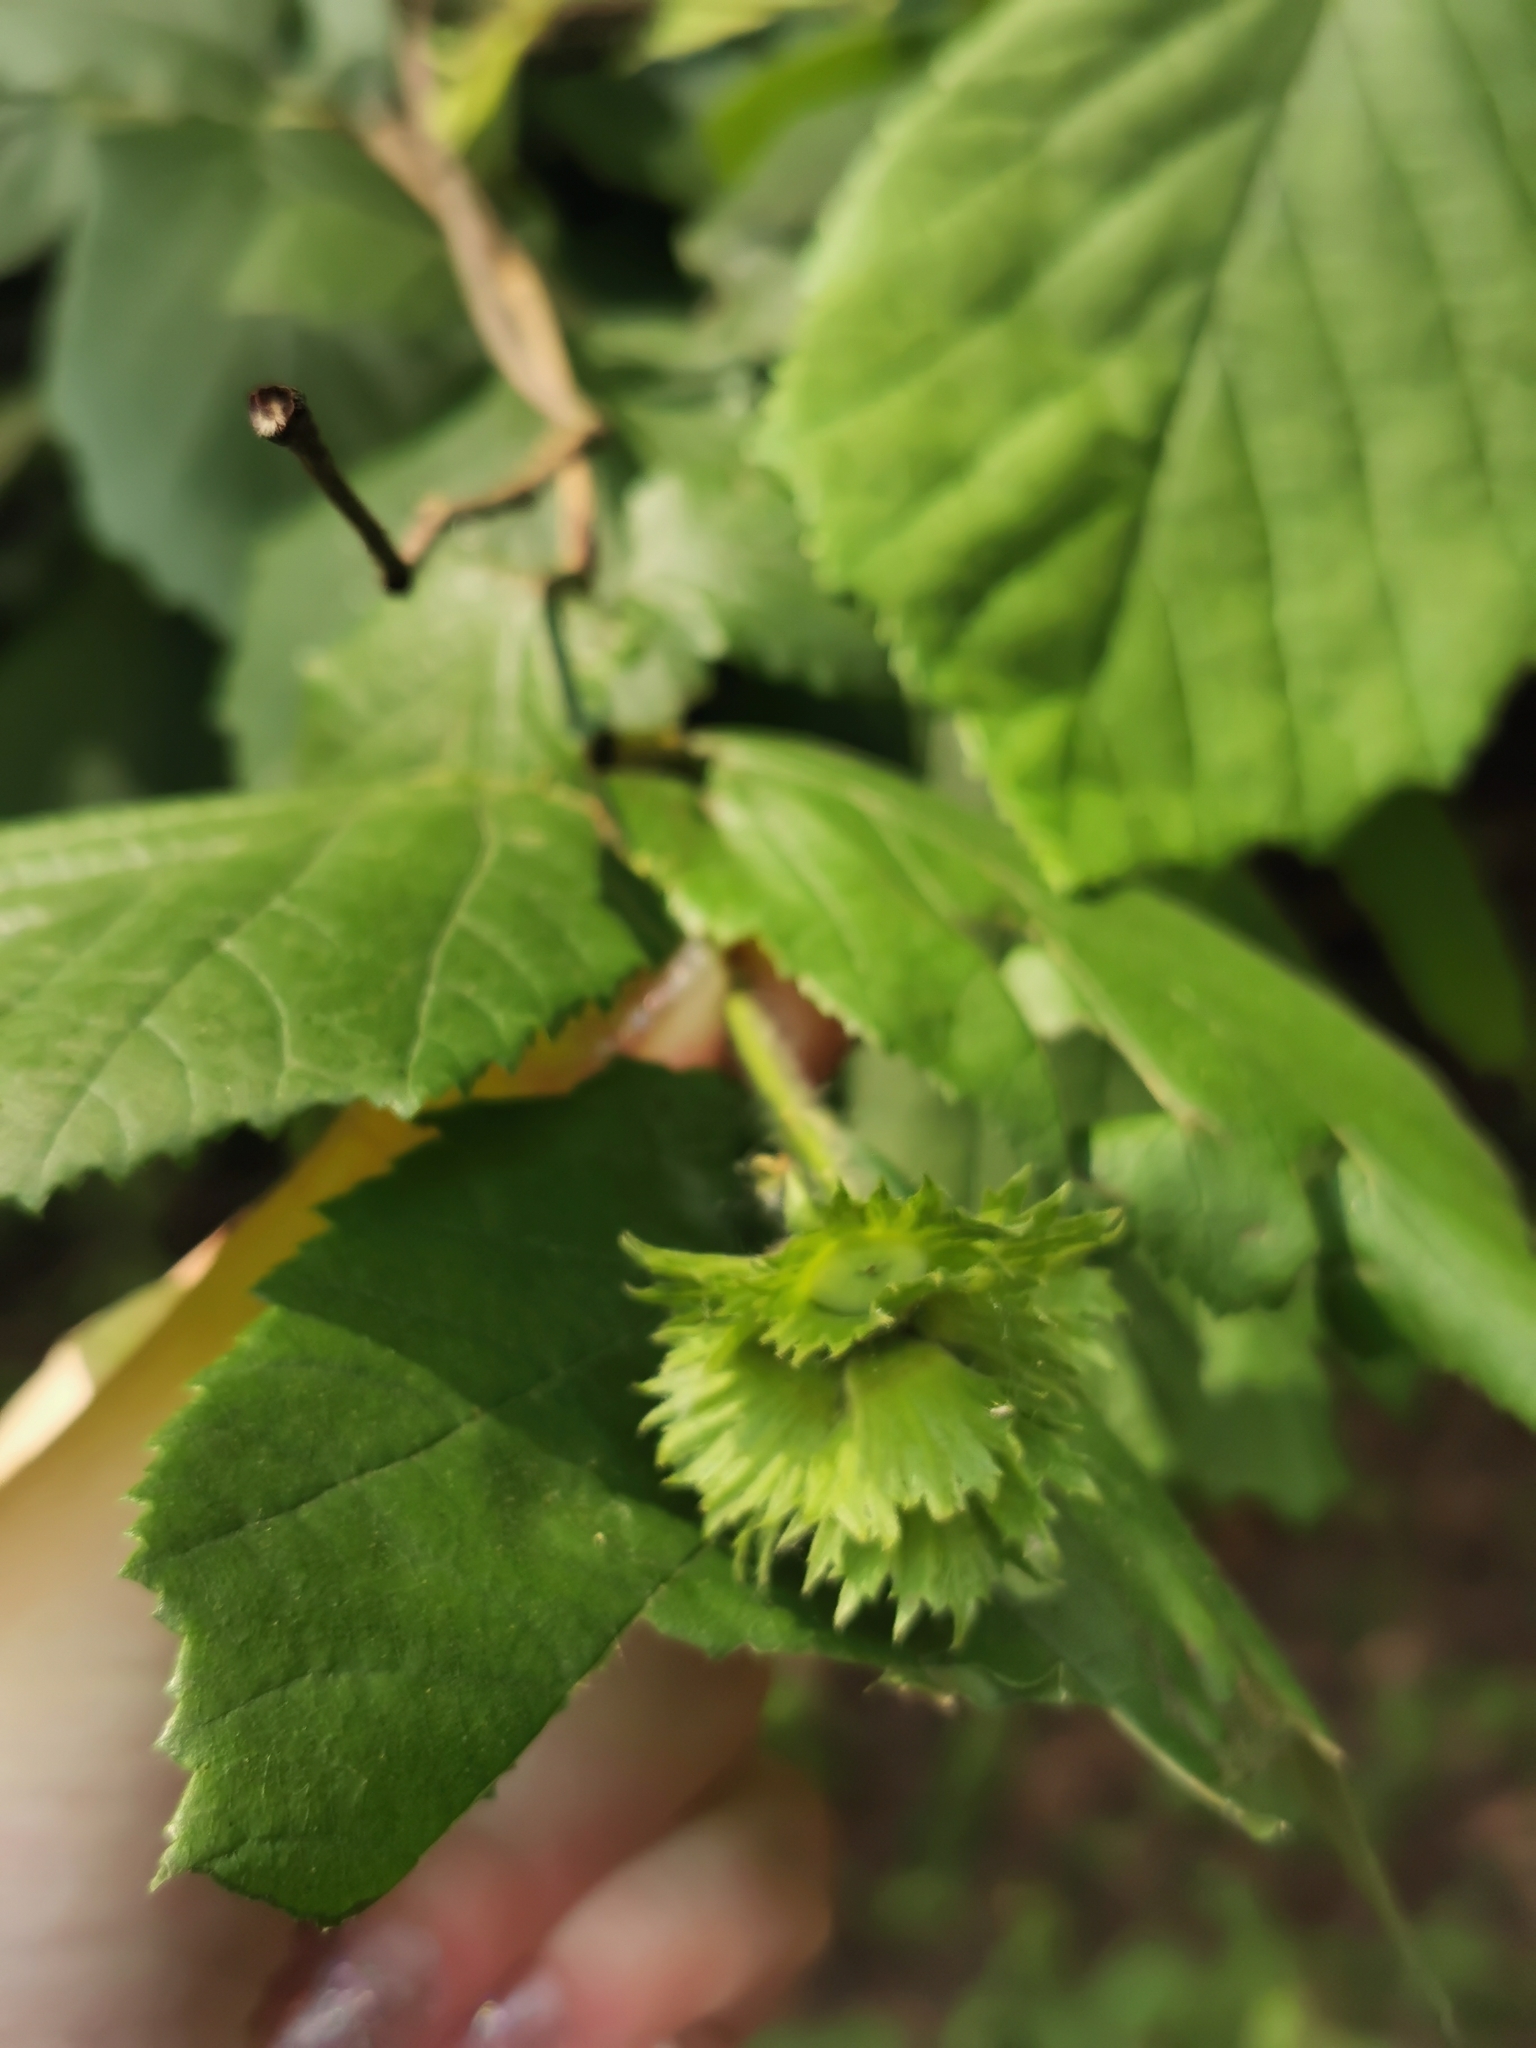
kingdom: Plantae
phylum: Tracheophyta
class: Magnoliopsida
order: Fagales
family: Betulaceae
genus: Corylus
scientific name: Corylus avellana
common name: European hazel
